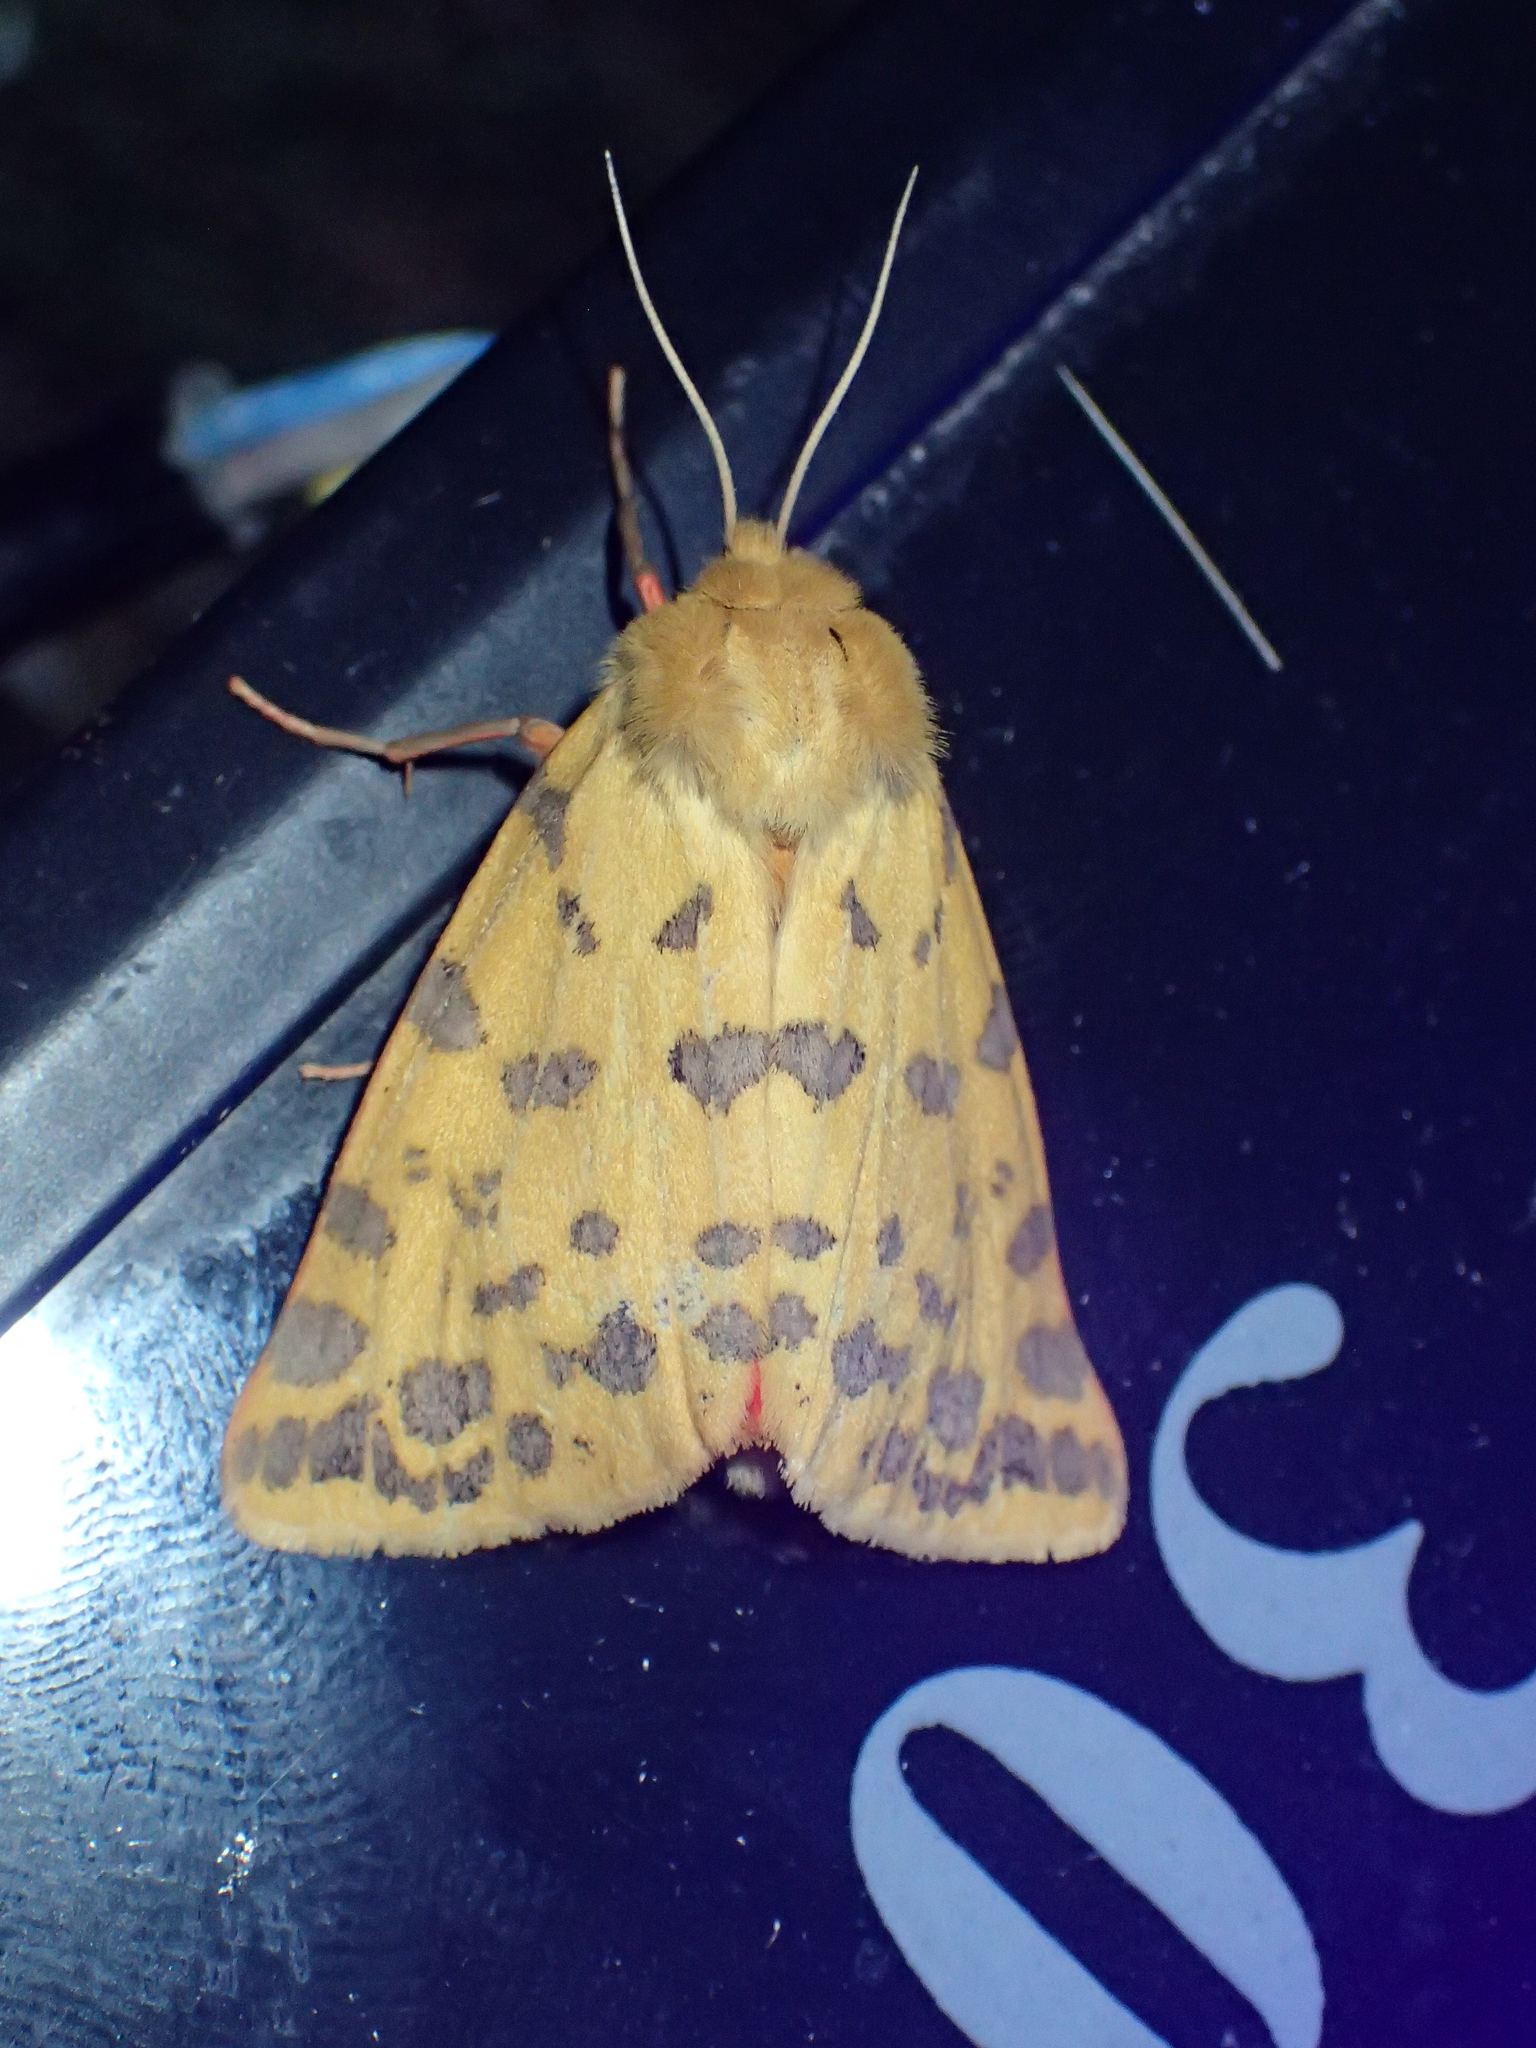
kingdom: Animalia
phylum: Arthropoda
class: Insecta
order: Lepidoptera
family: Erebidae
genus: Rhyparia
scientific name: Rhyparia purpurata
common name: Purple tiger
